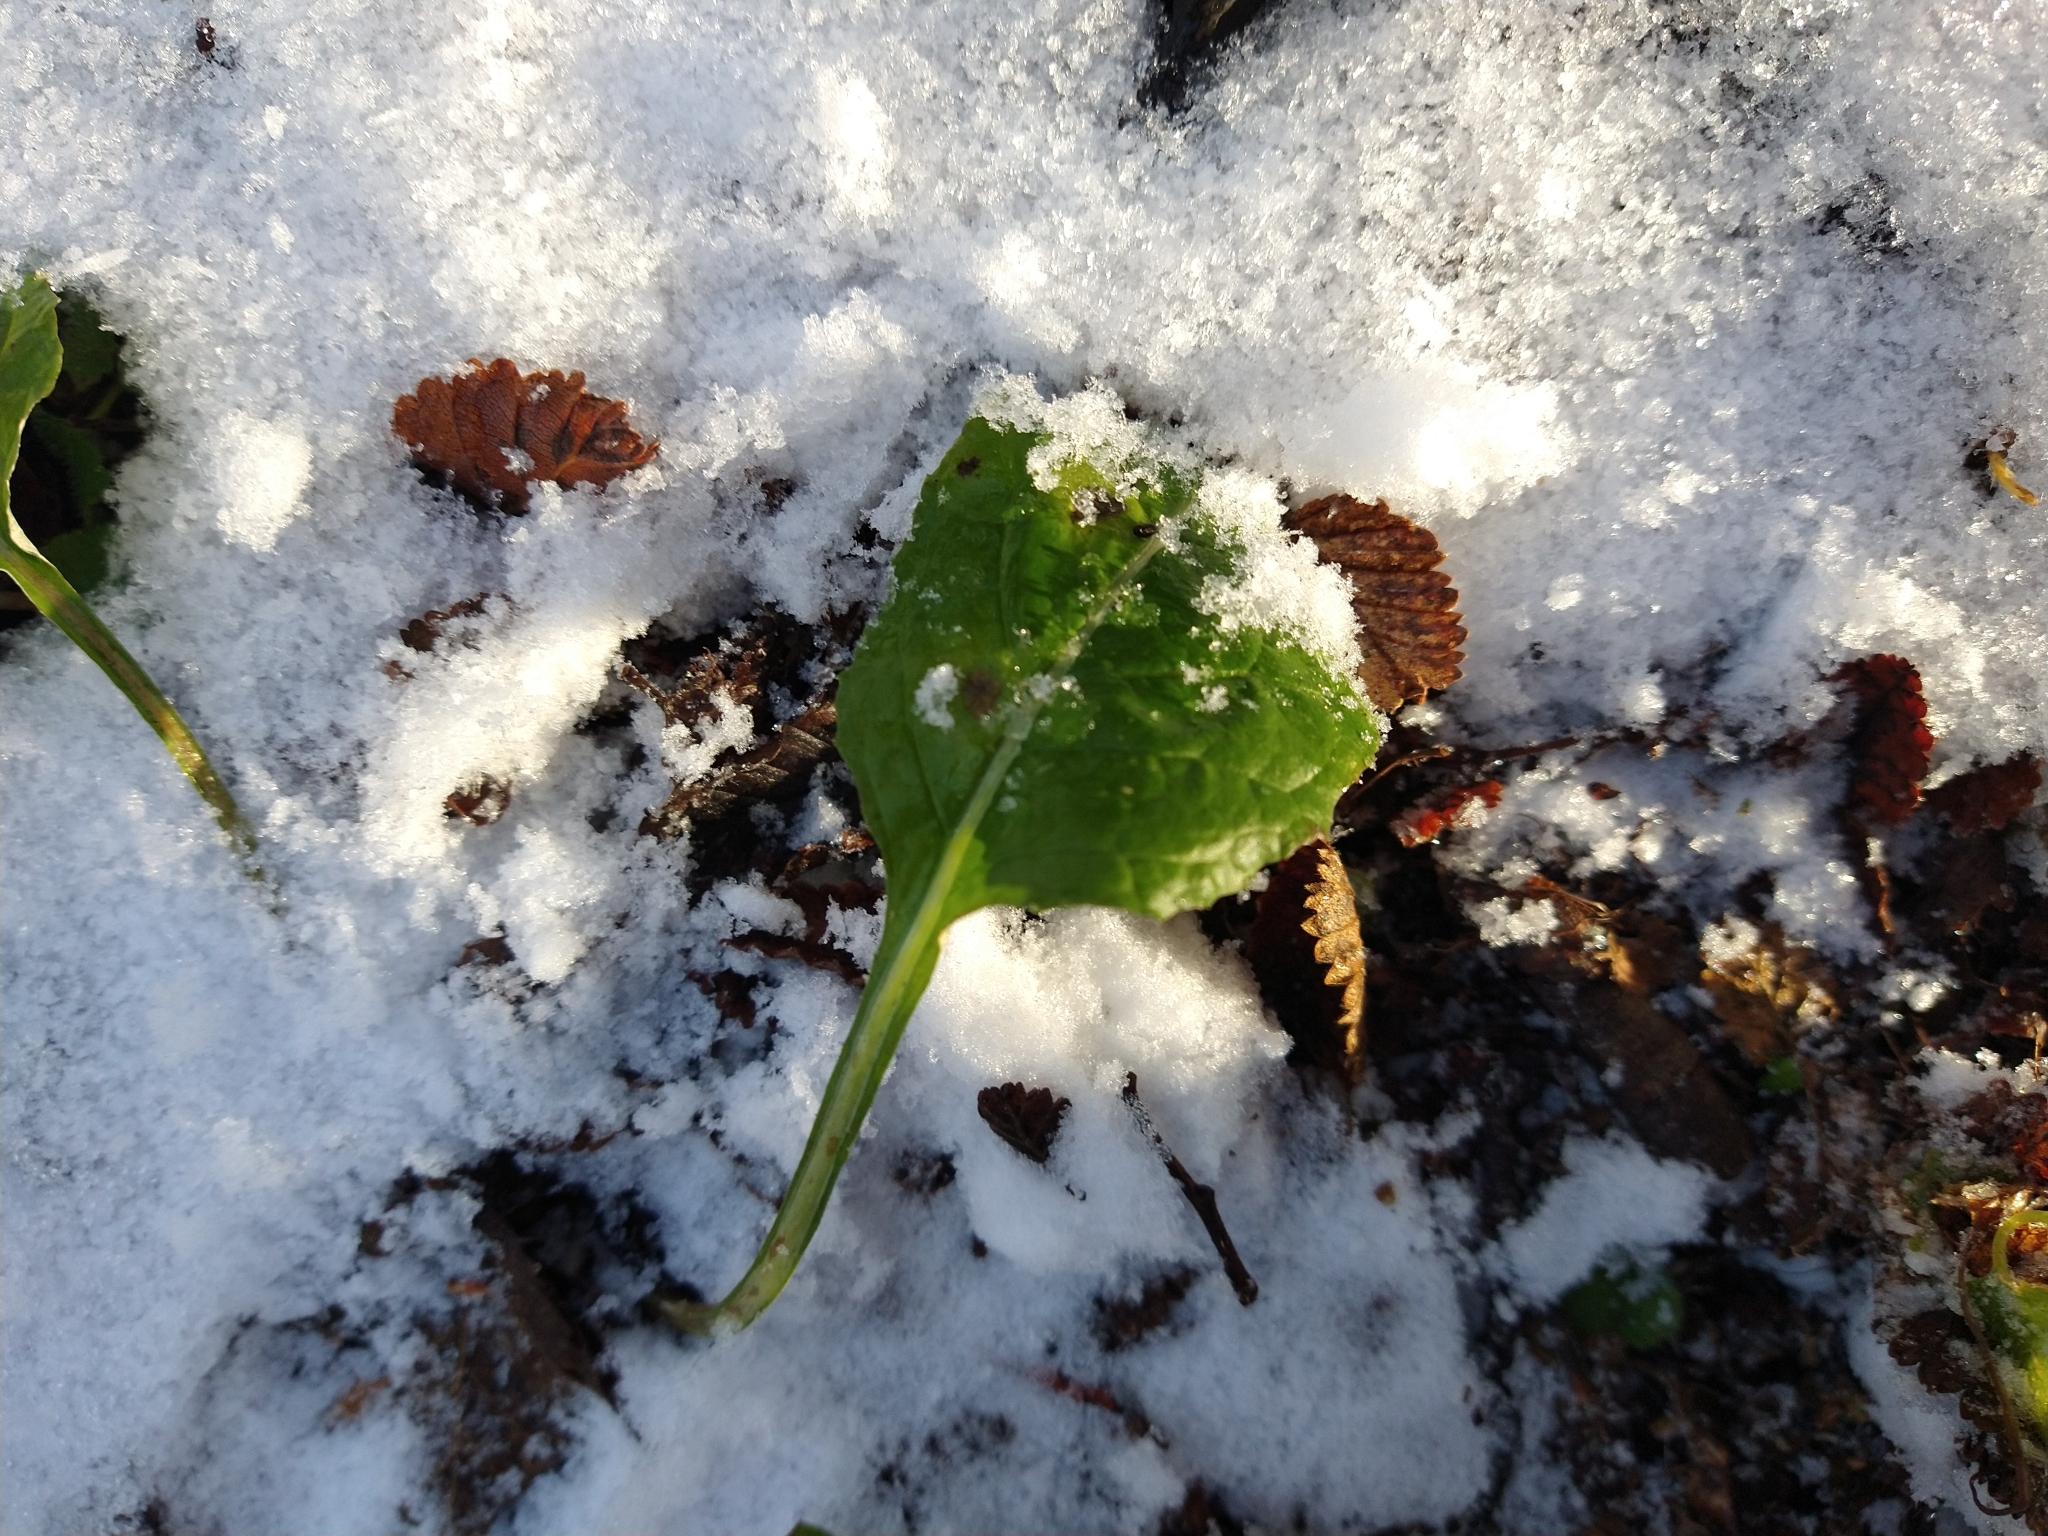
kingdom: Plantae
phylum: Tracheophyta
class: Magnoliopsida
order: Asterales
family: Asteraceae
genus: Adenocaulon
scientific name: Adenocaulon chilense
